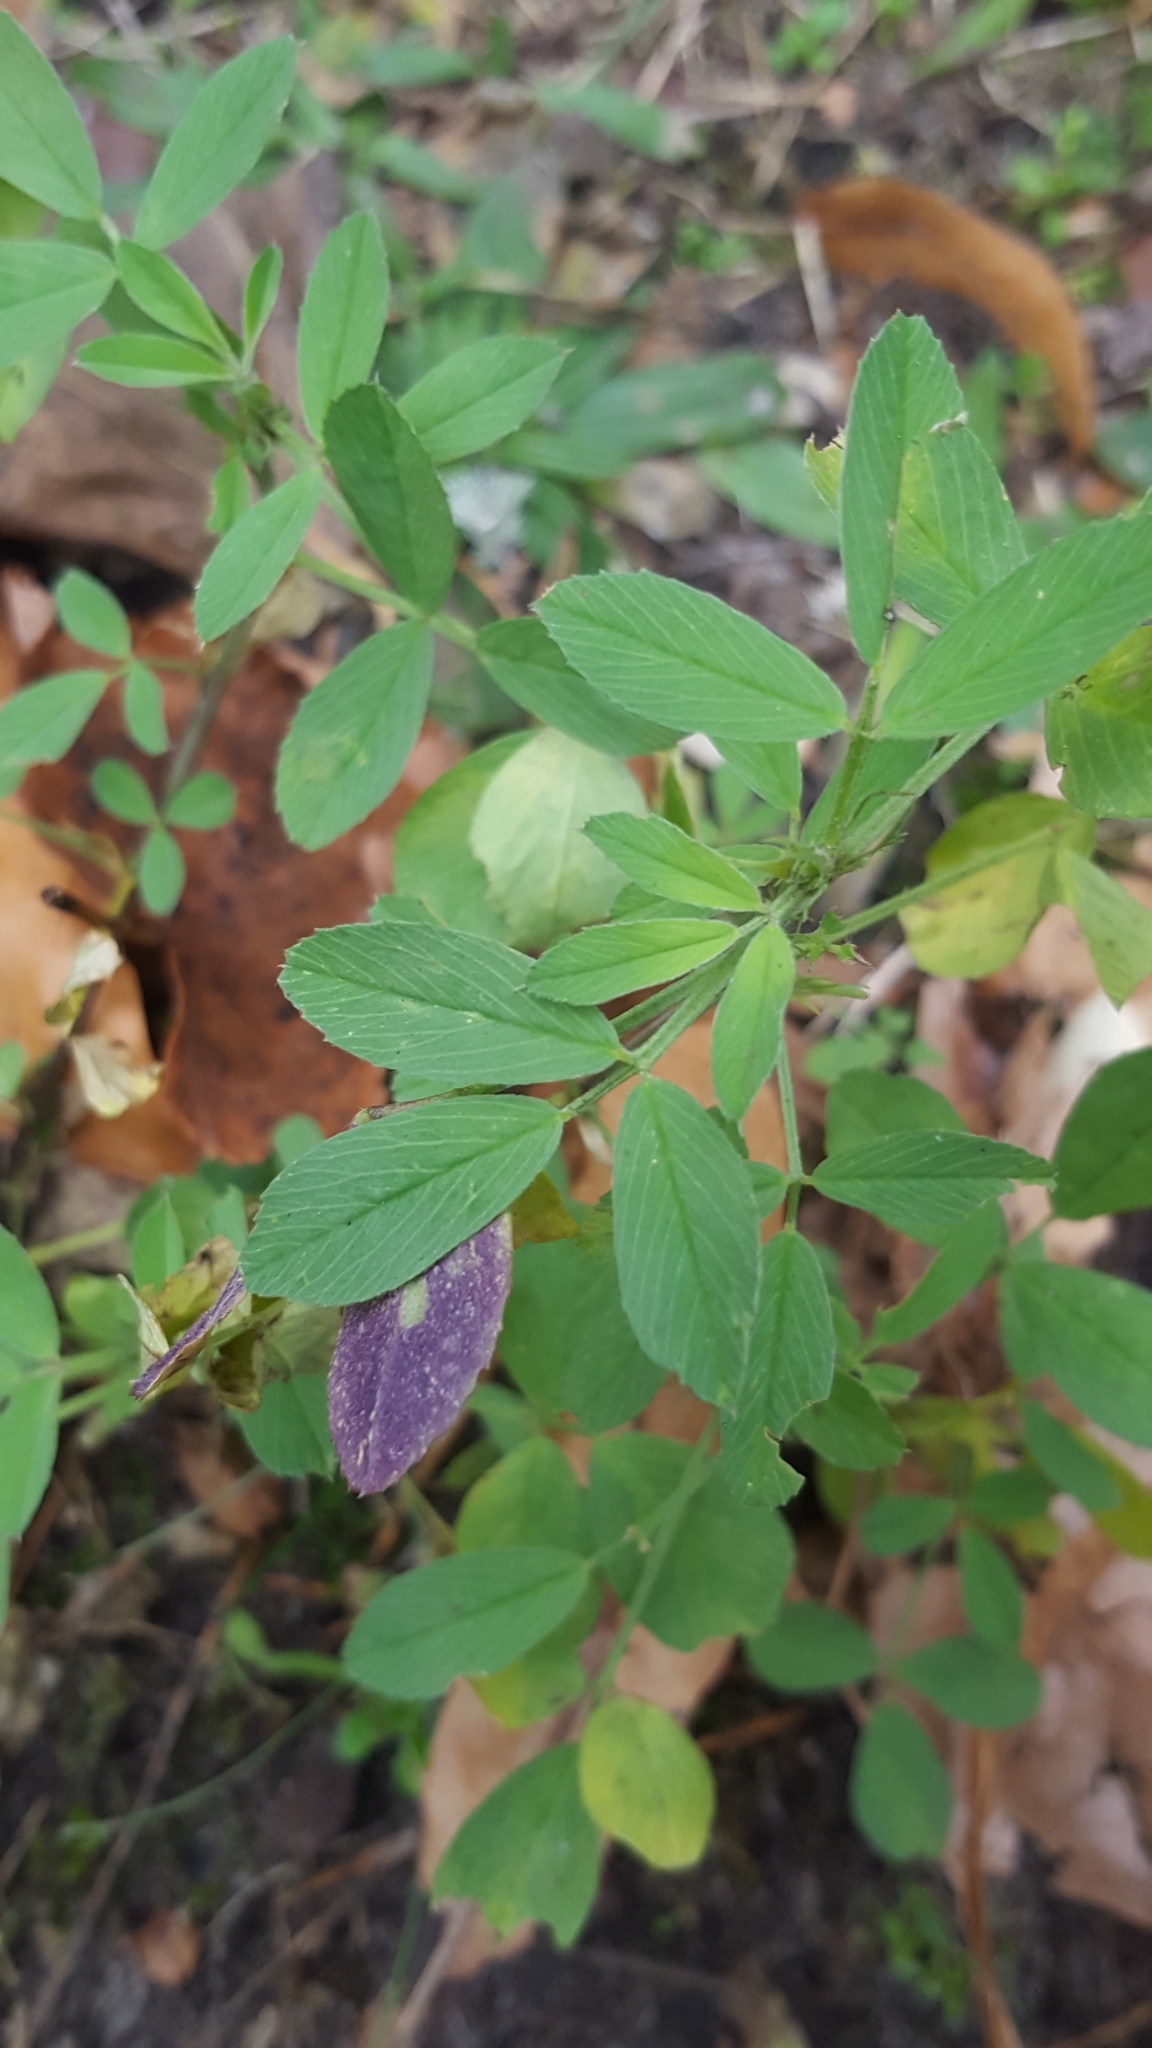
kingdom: Plantae
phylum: Tracheophyta
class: Magnoliopsida
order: Fabales
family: Fabaceae
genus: Medicago
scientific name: Medicago sativa
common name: Alfalfa
